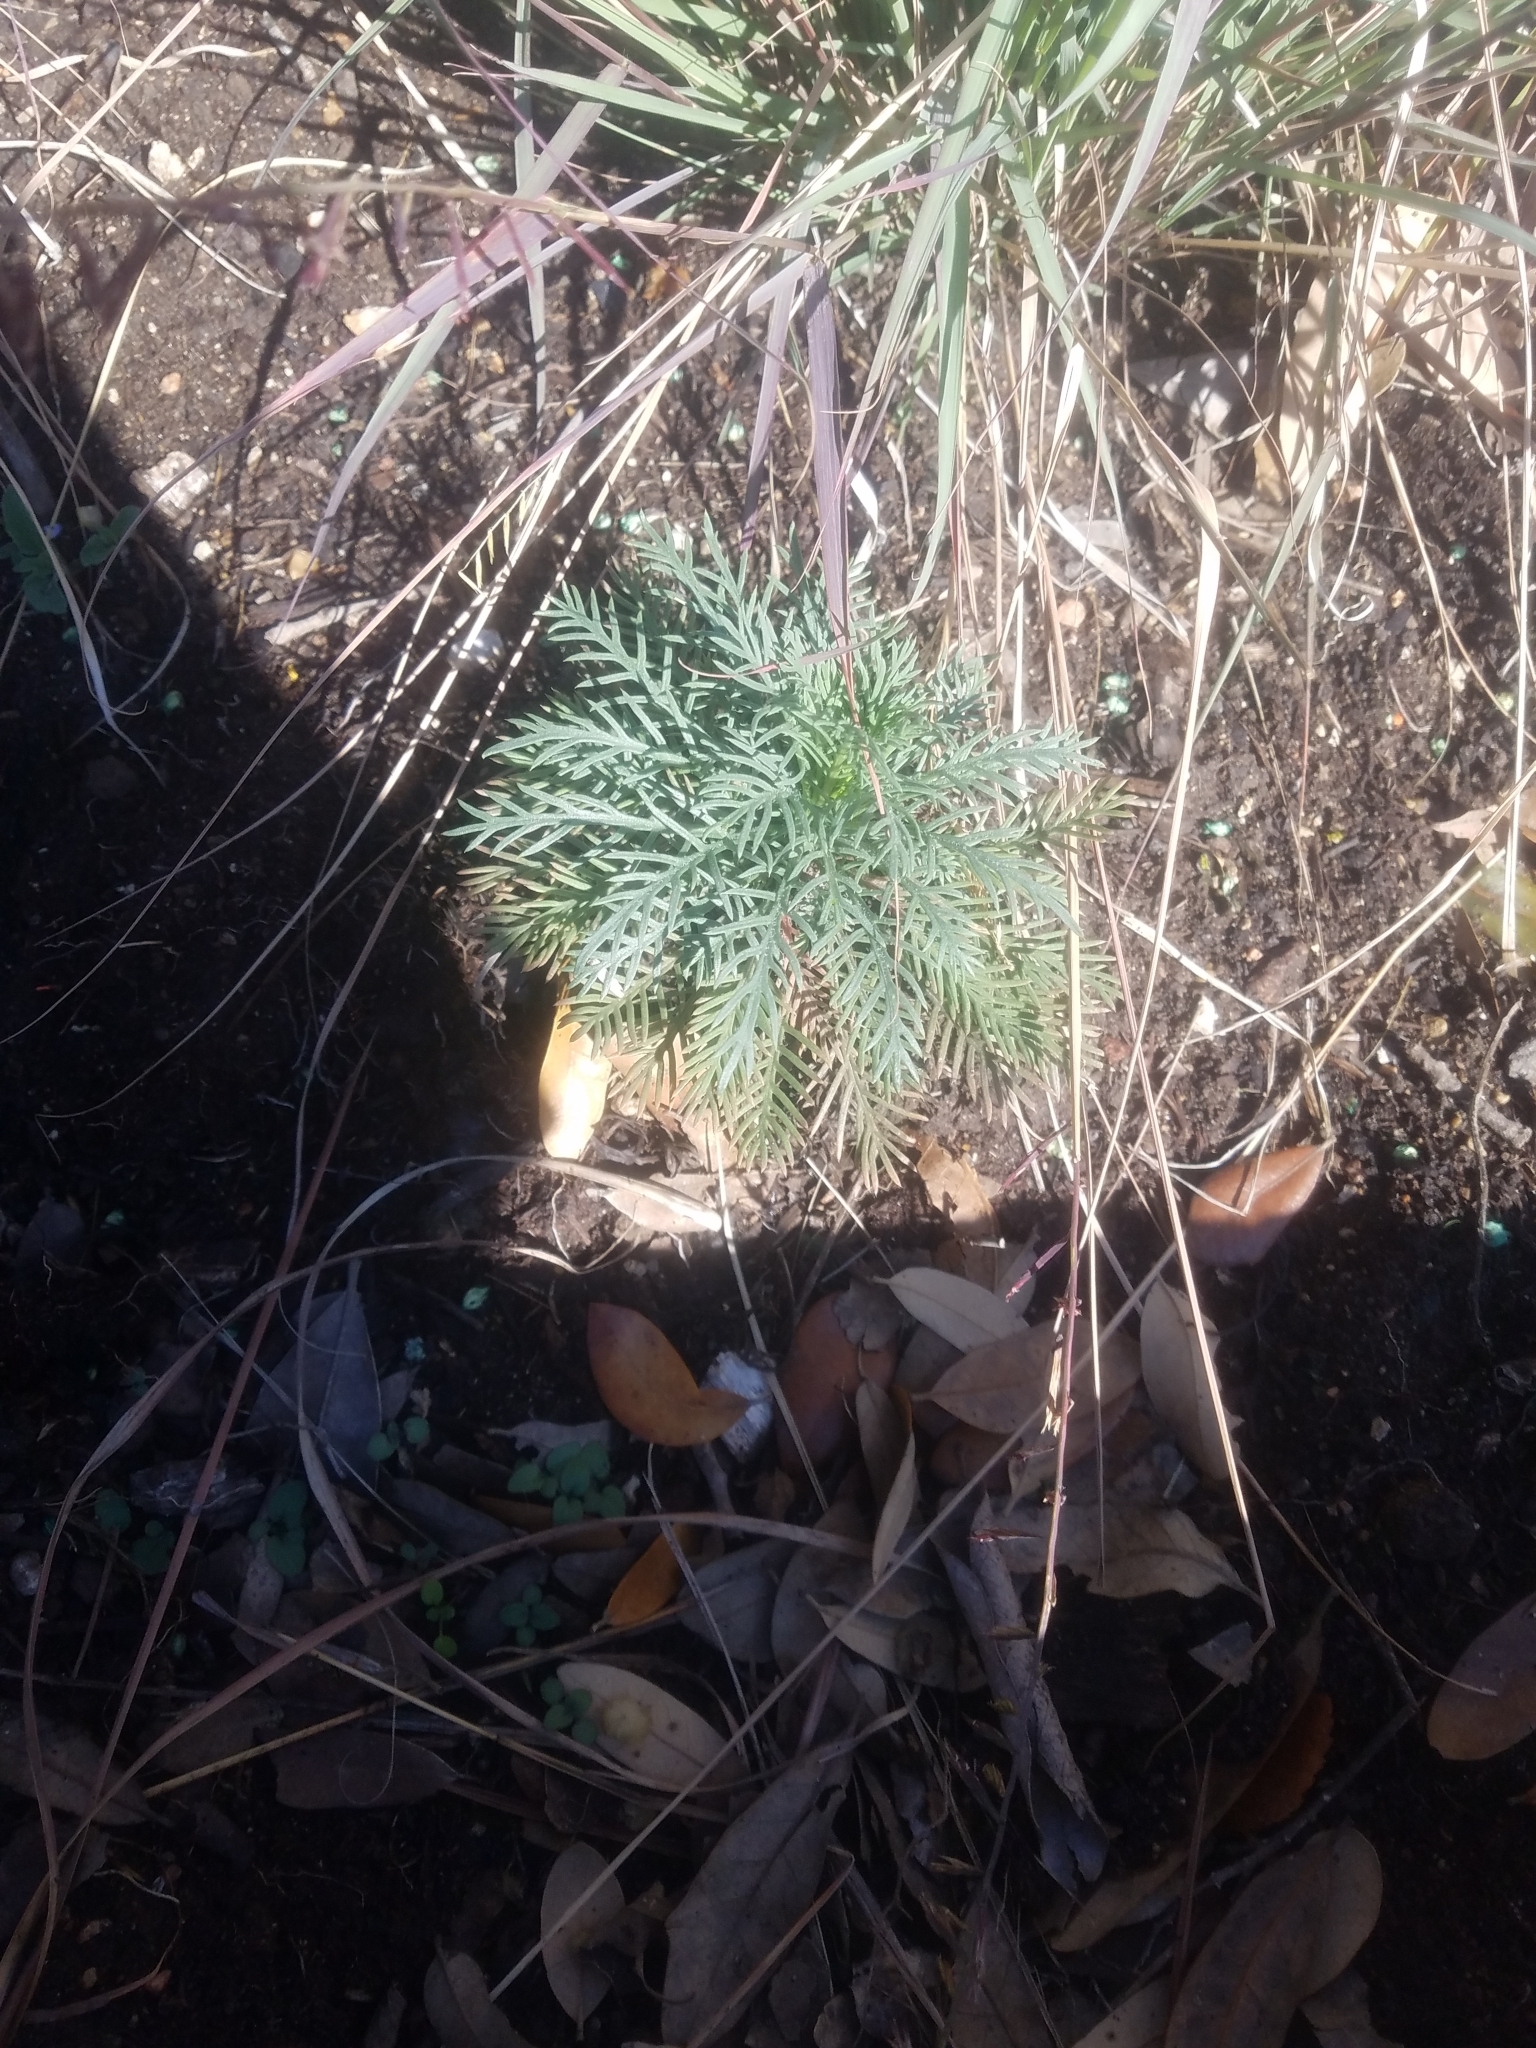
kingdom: Plantae
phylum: Tracheophyta
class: Magnoliopsida
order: Ericales
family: Polemoniaceae
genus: Ipomopsis
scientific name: Ipomopsis rubra
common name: Skyrocket
